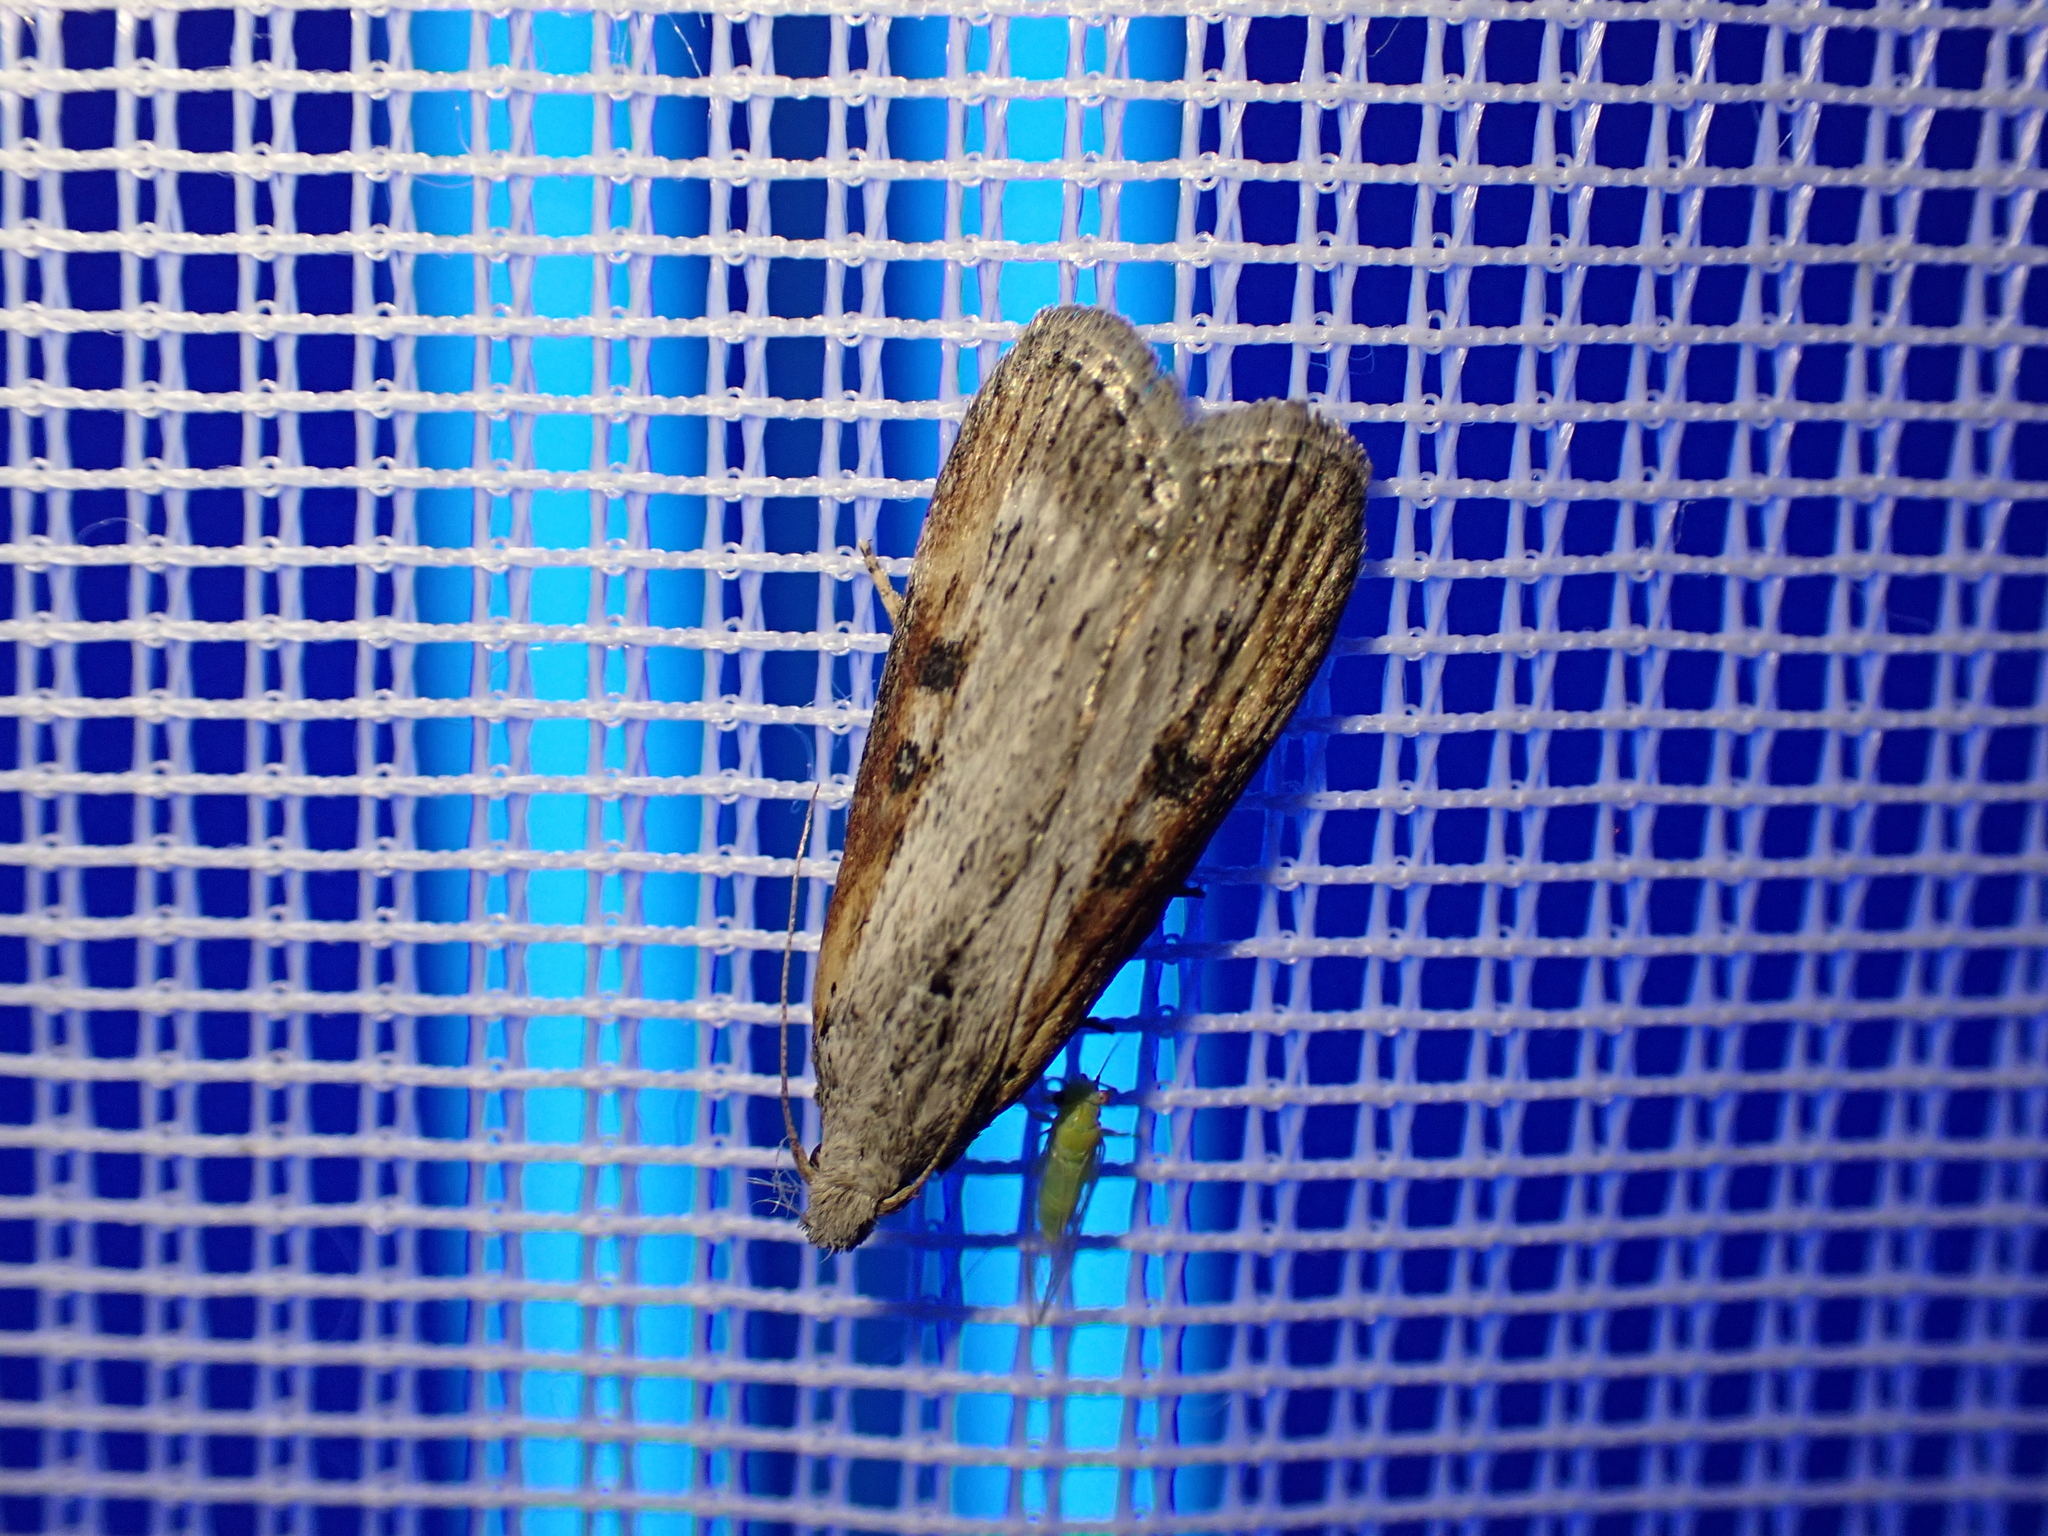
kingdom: Animalia
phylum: Arthropoda
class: Insecta
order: Lepidoptera
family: Pyralidae
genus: Lamoria
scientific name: Lamoria anella
